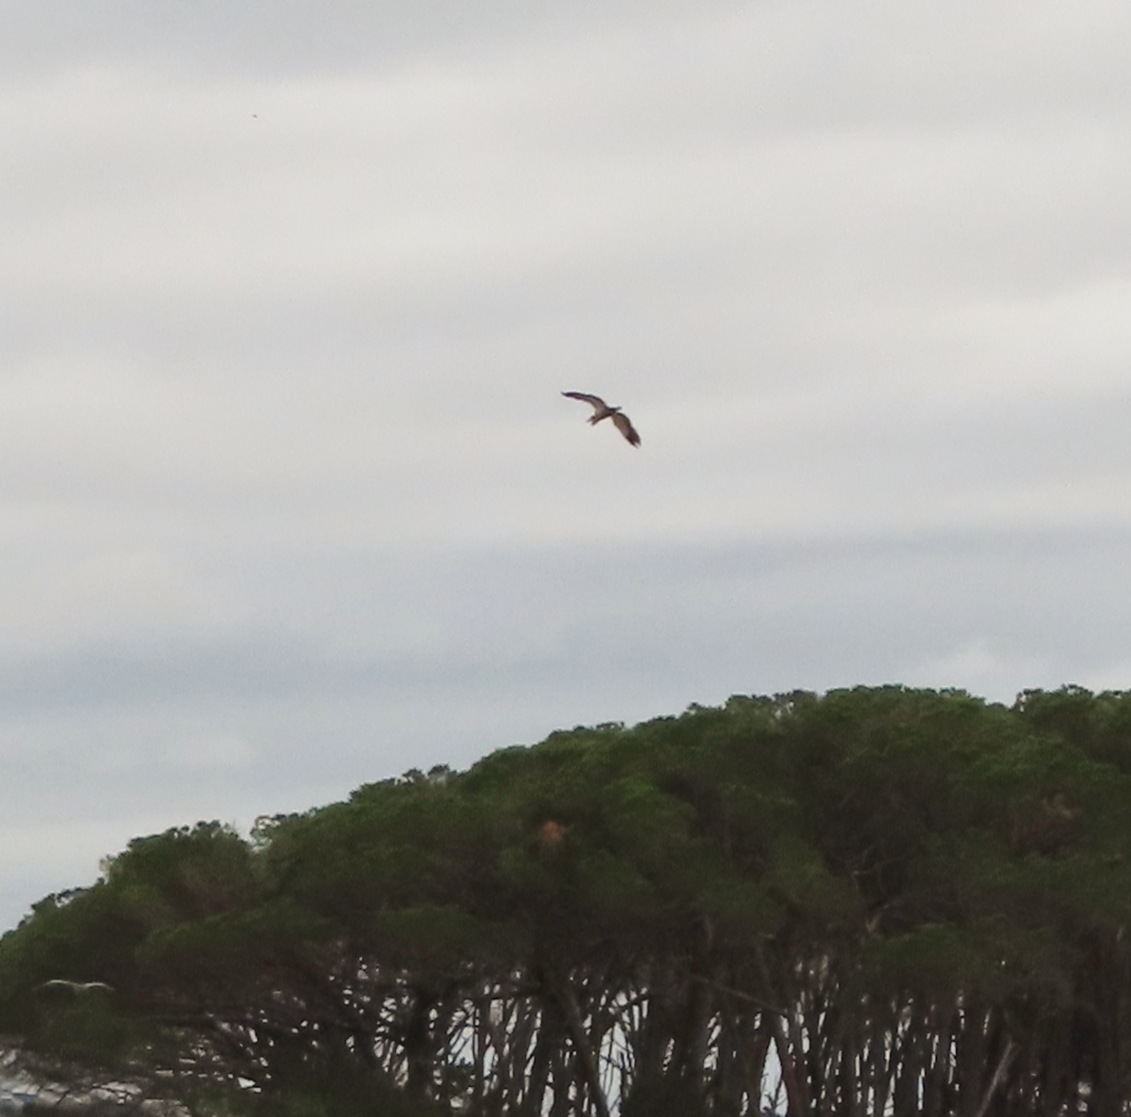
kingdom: Animalia
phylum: Chordata
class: Aves
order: Pelecaniformes
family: Ardeidae
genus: Ardea
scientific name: Ardea melanocephala
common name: Black-headed heron
